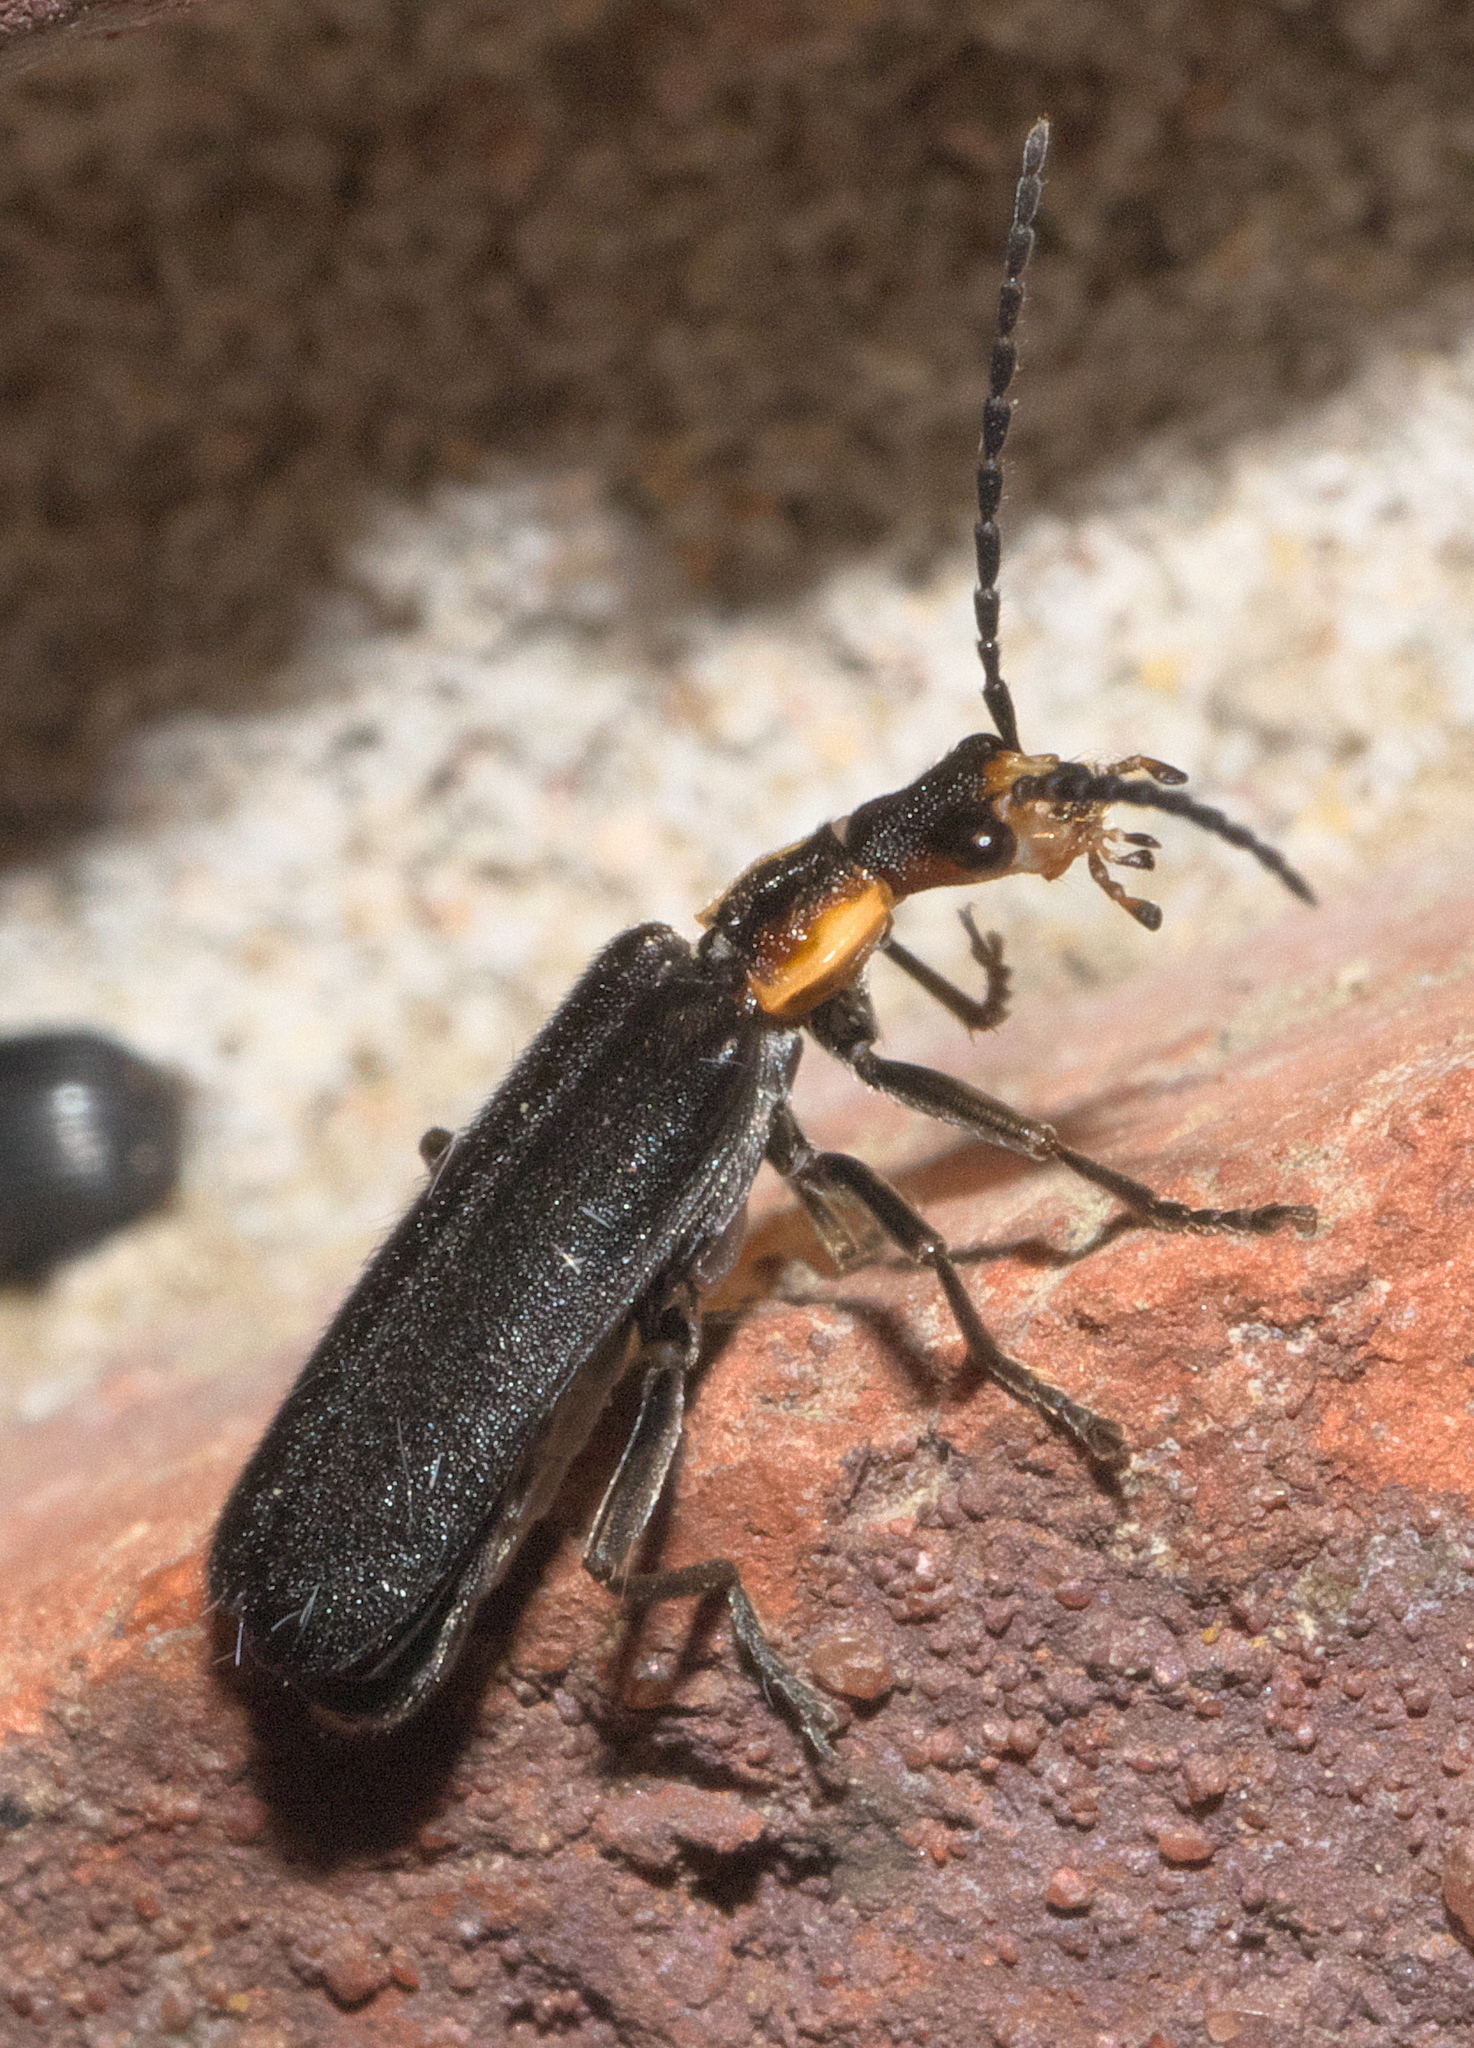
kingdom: Animalia
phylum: Arthropoda
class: Insecta
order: Coleoptera
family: Cantharidae
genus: Podabrus
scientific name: Podabrus rugosulus
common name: Wrinkled soldier beetle
